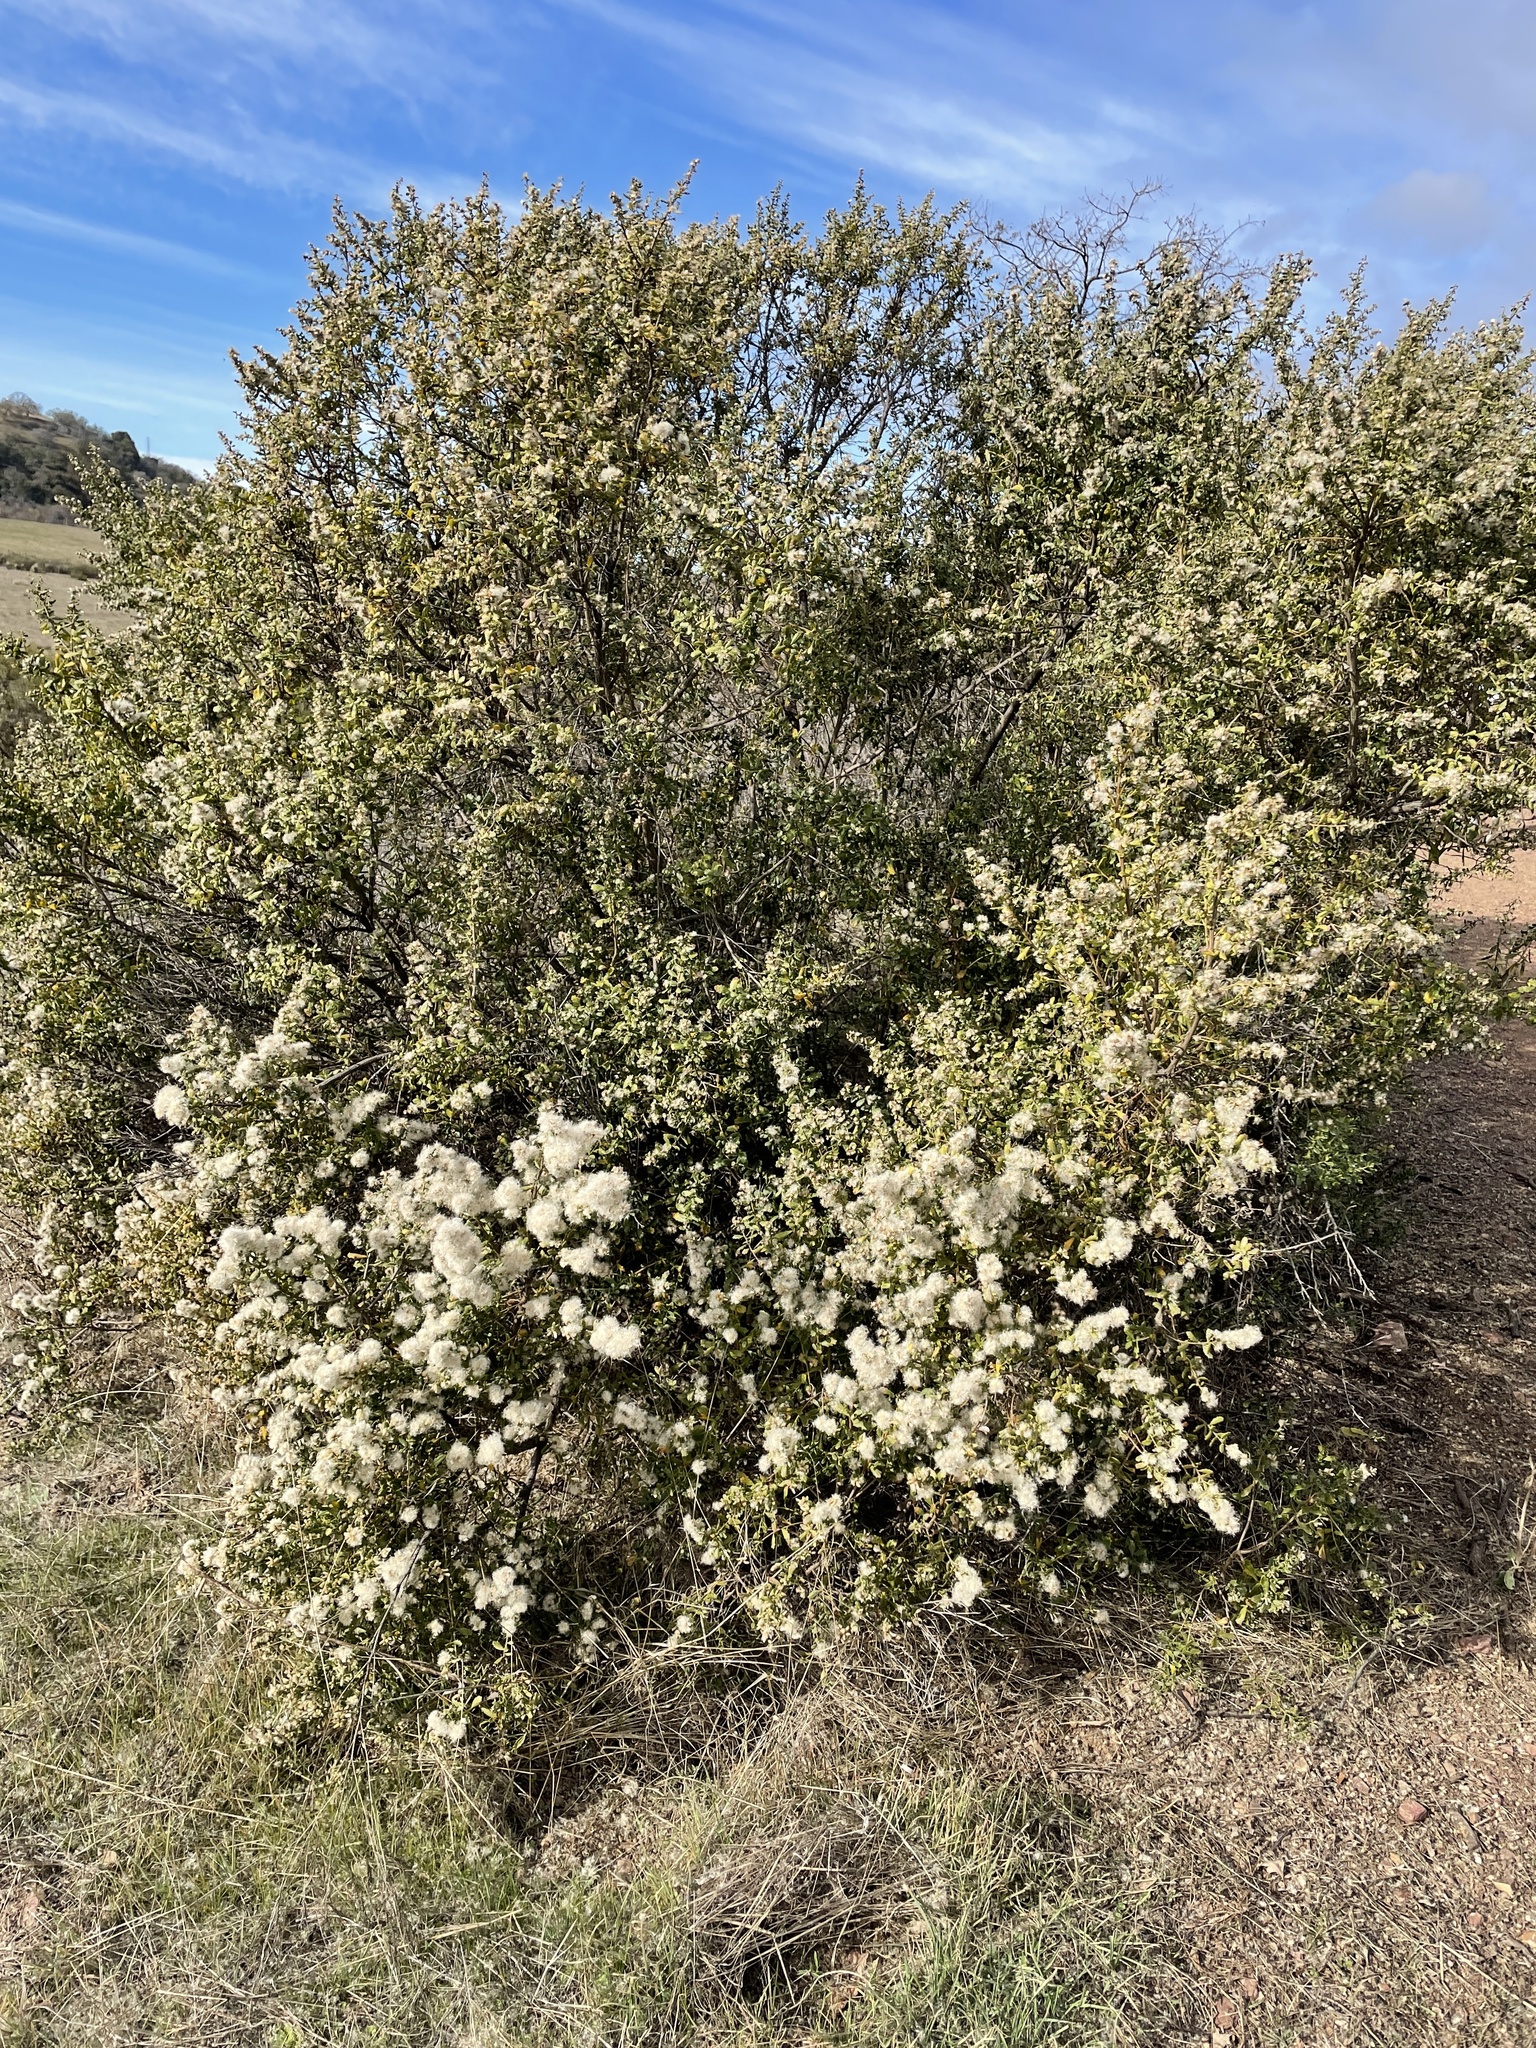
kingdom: Plantae
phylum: Tracheophyta
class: Magnoliopsida
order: Asterales
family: Asteraceae
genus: Baccharis
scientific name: Baccharis pilularis
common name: Coyotebrush
